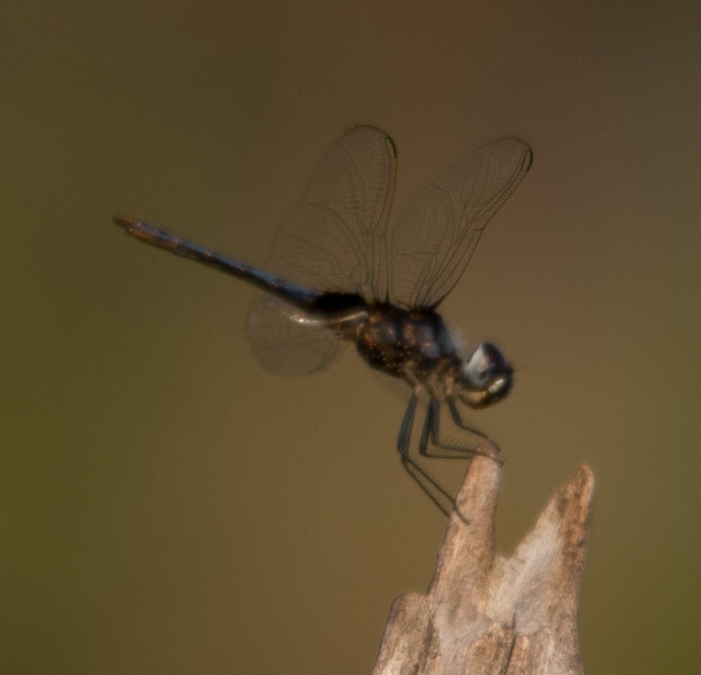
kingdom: Animalia
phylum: Arthropoda
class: Insecta
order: Odonata
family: Libellulidae
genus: Urothemis
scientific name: Urothemis edwardsii
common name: Blue basker
